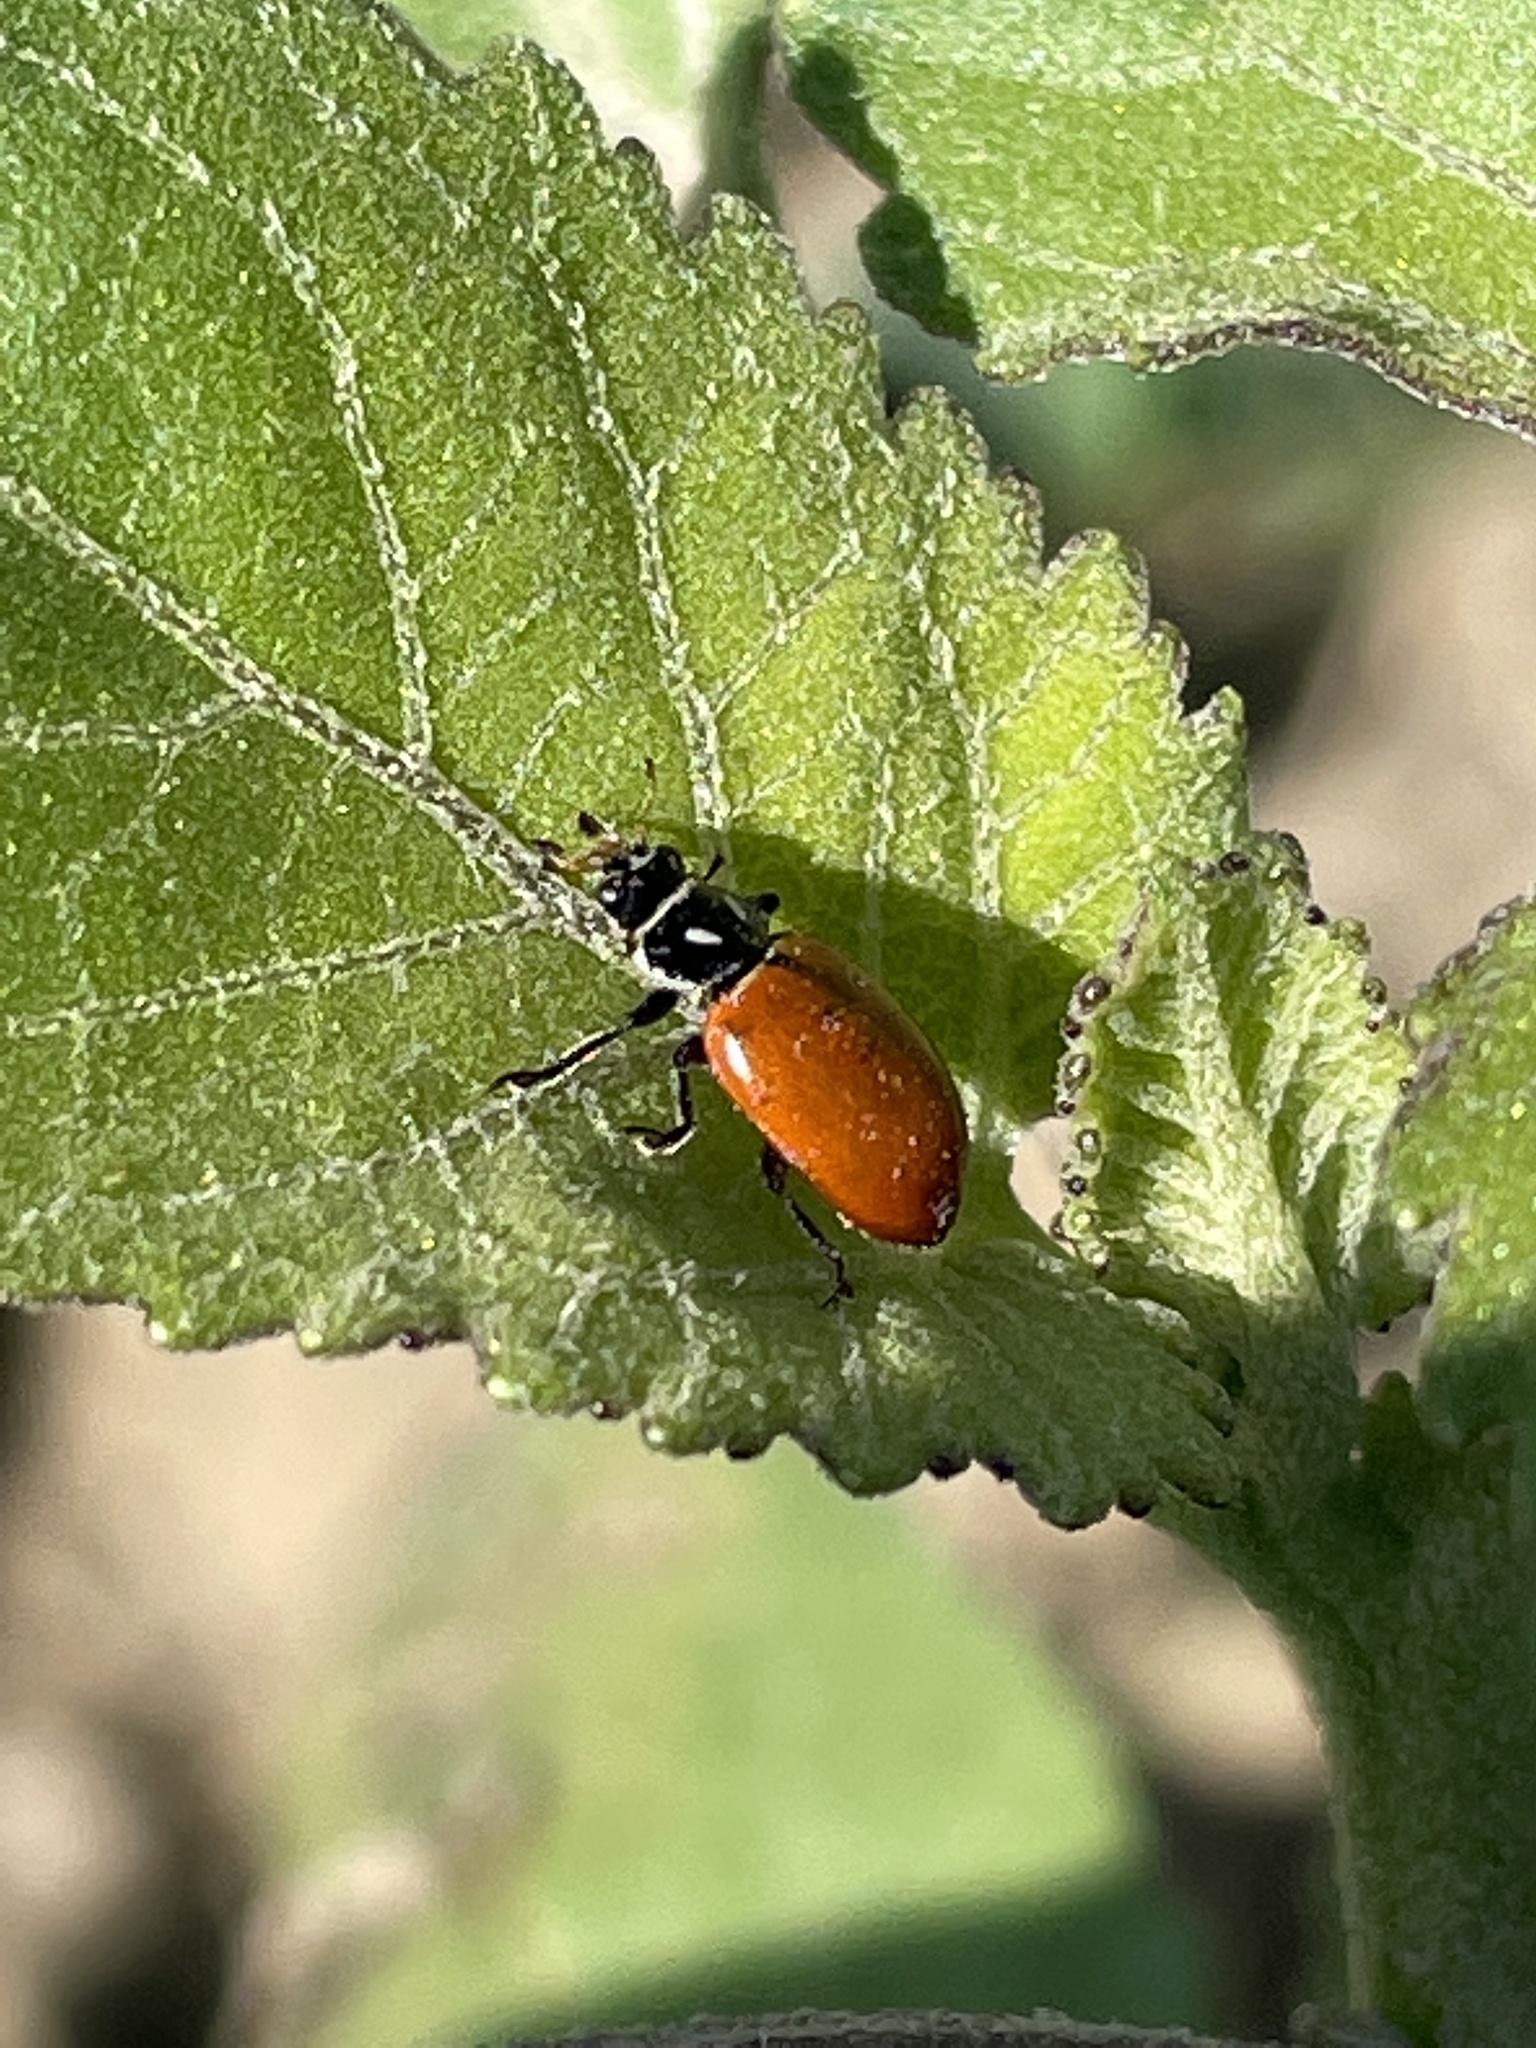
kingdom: Animalia
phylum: Arthropoda
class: Insecta
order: Coleoptera
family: Coccinellidae
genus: Hippodamia
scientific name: Hippodamia convergens
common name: Convergent lady beetle
